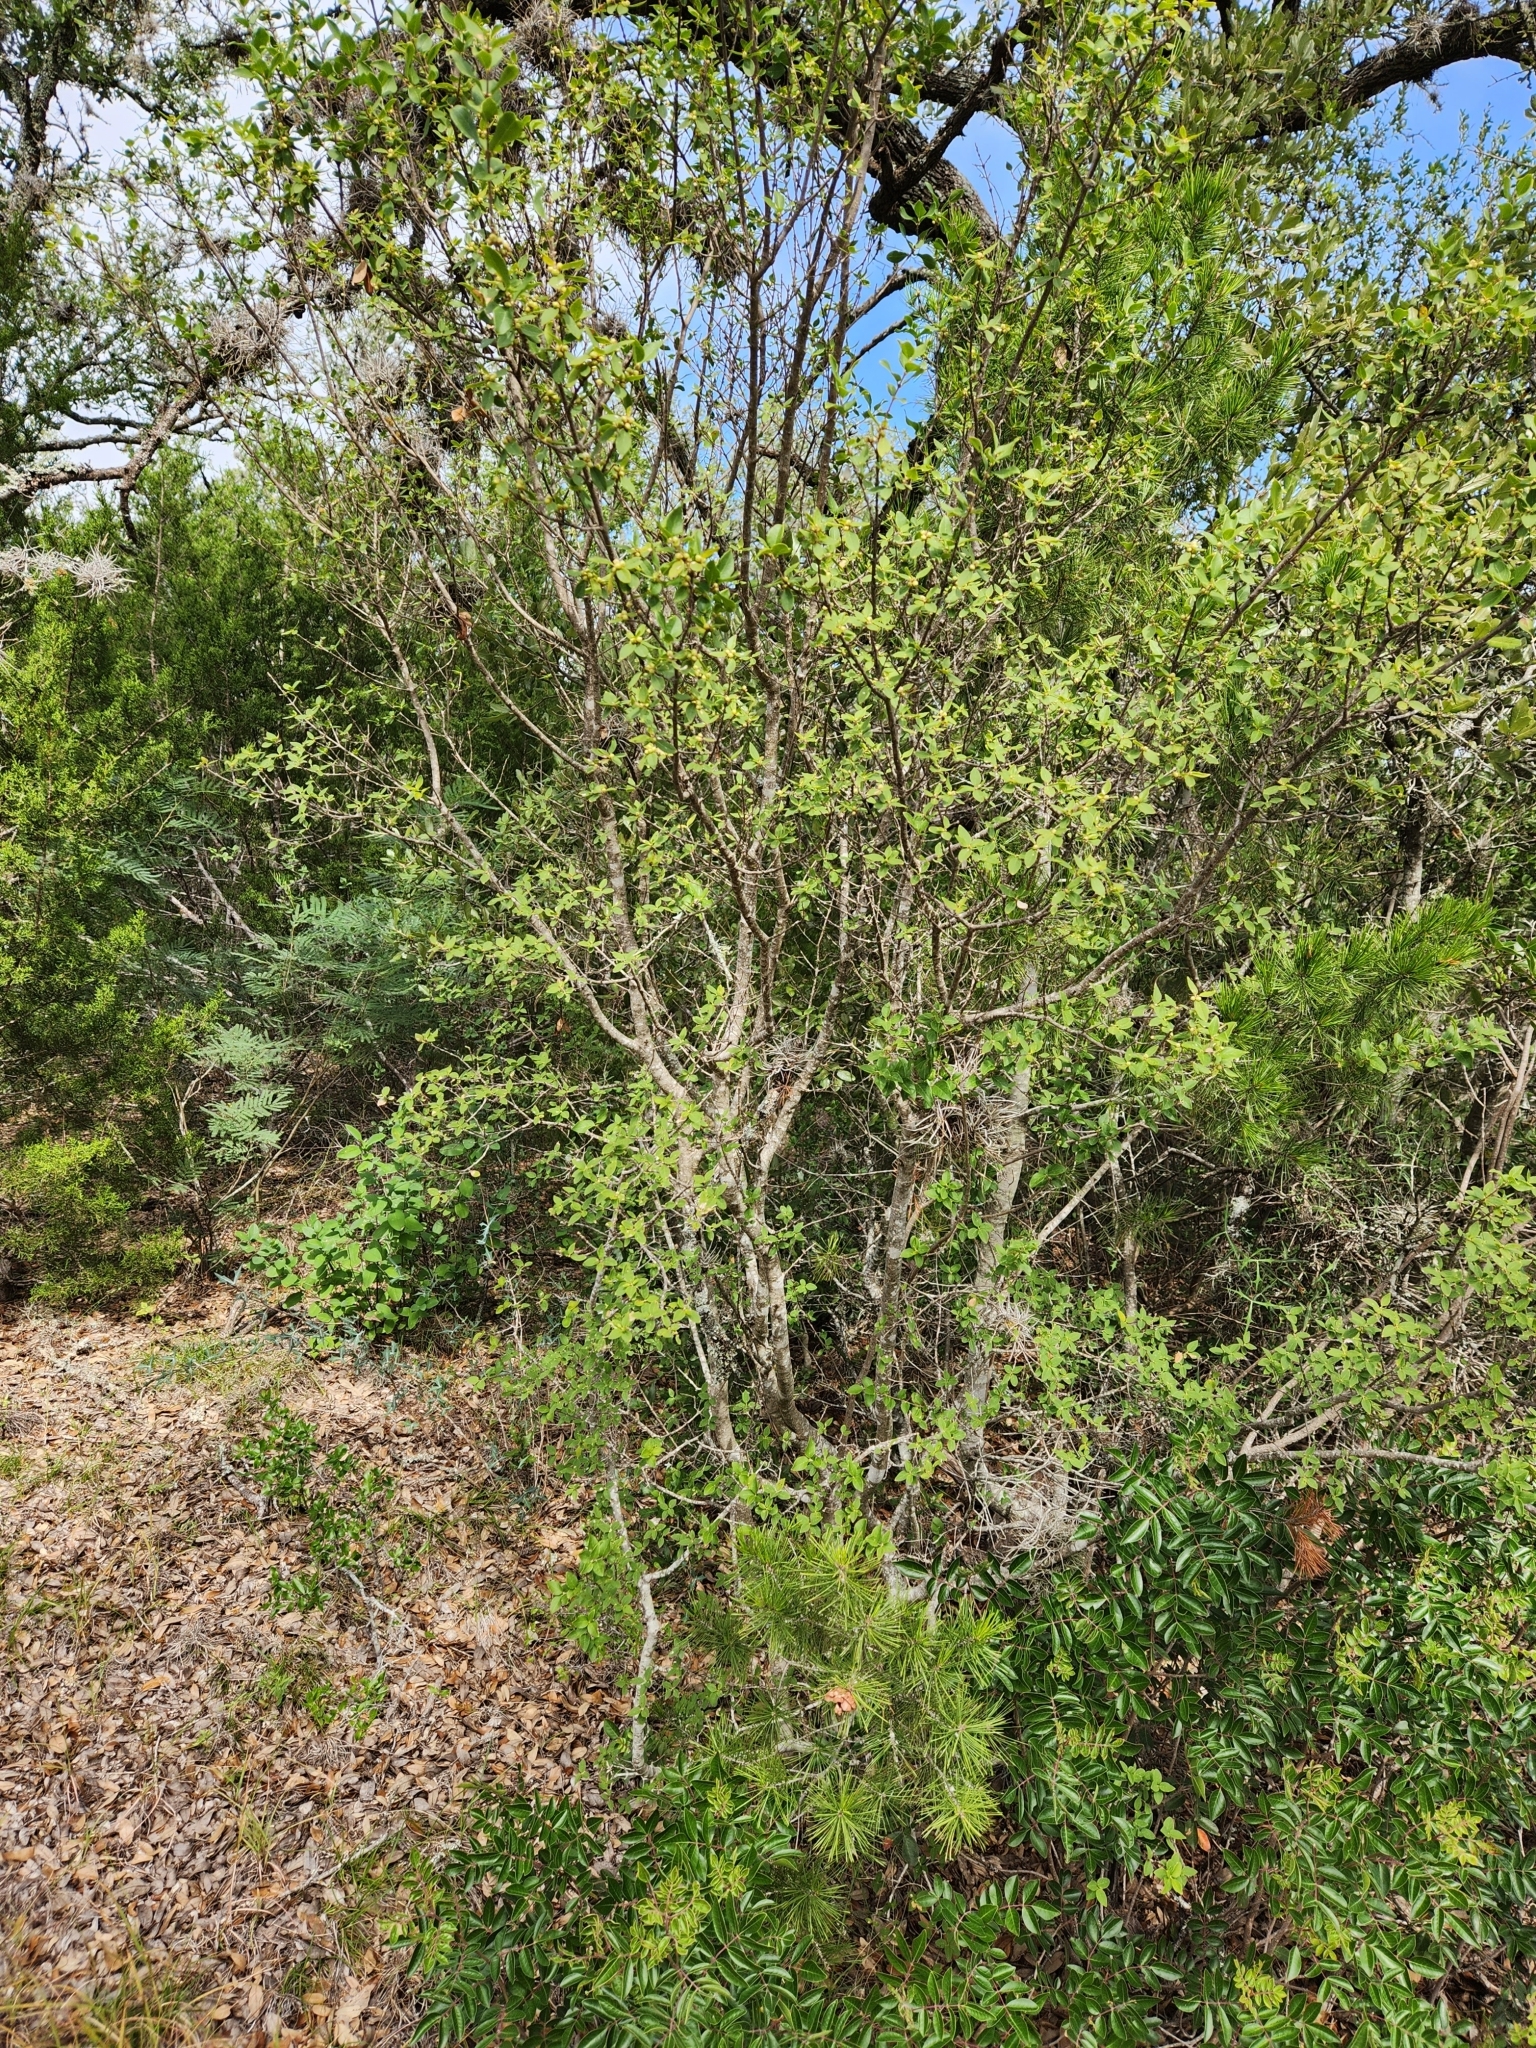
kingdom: Plantae
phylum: Tracheophyta
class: Magnoliopsida
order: Lamiales
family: Oleaceae
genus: Forestiera
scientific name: Forestiera reticulata
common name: Netleaf swamp-privet
